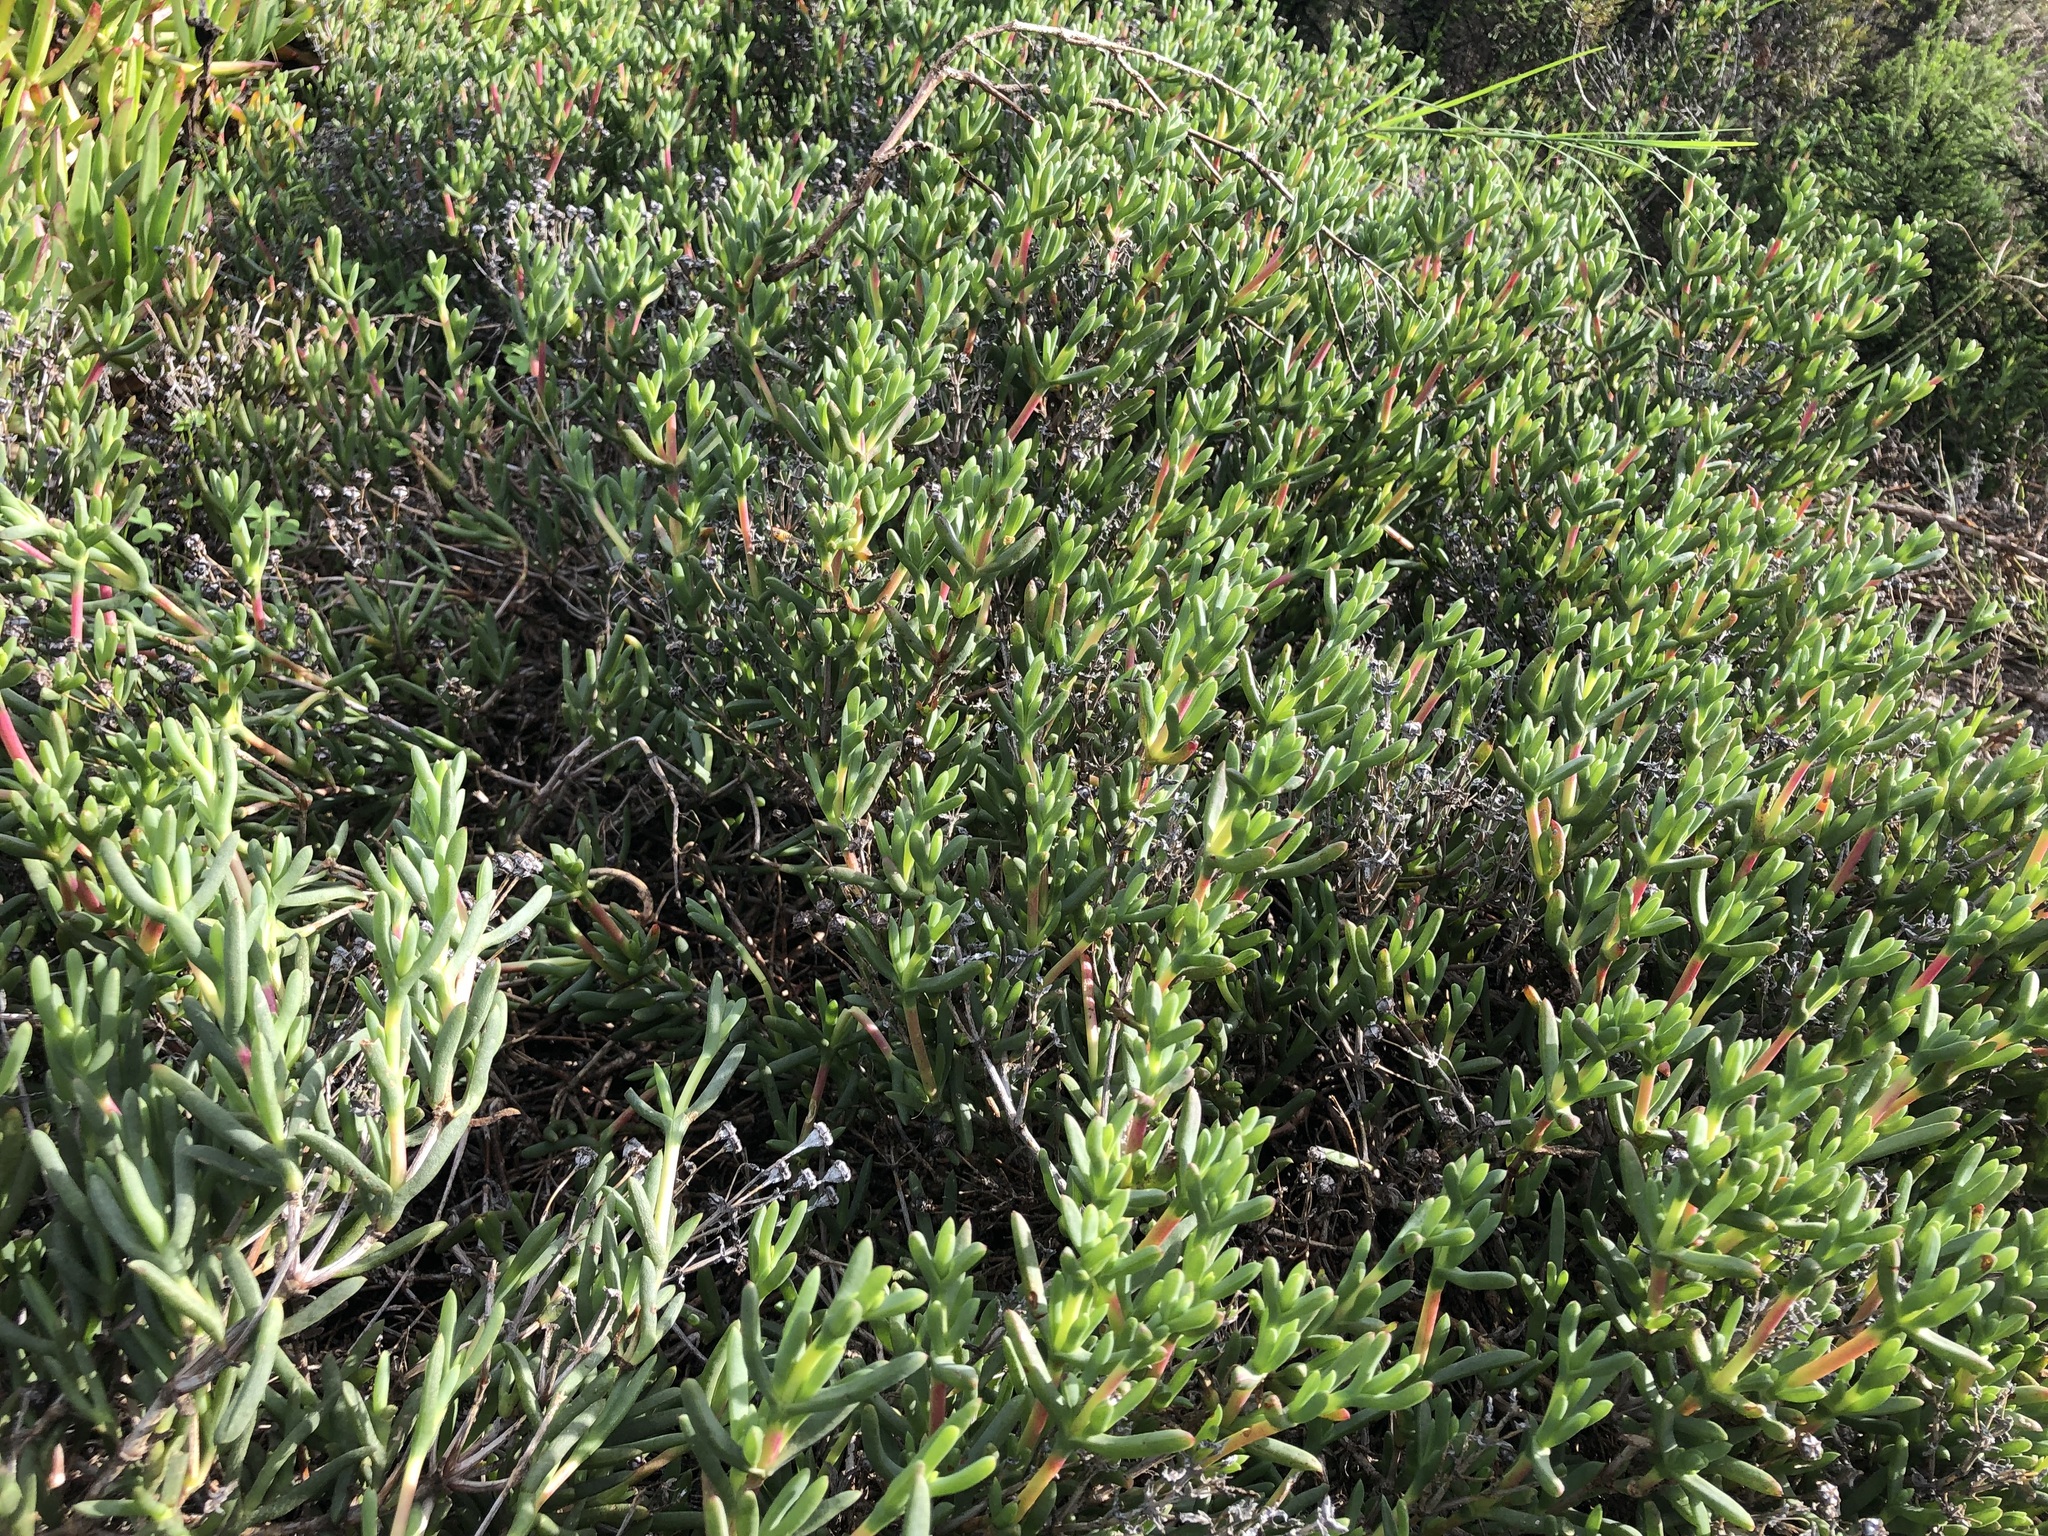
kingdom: Plantae
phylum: Tracheophyta
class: Magnoliopsida
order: Caryophyllales
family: Aizoaceae
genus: Ruschia
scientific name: Ruschia macowanii
